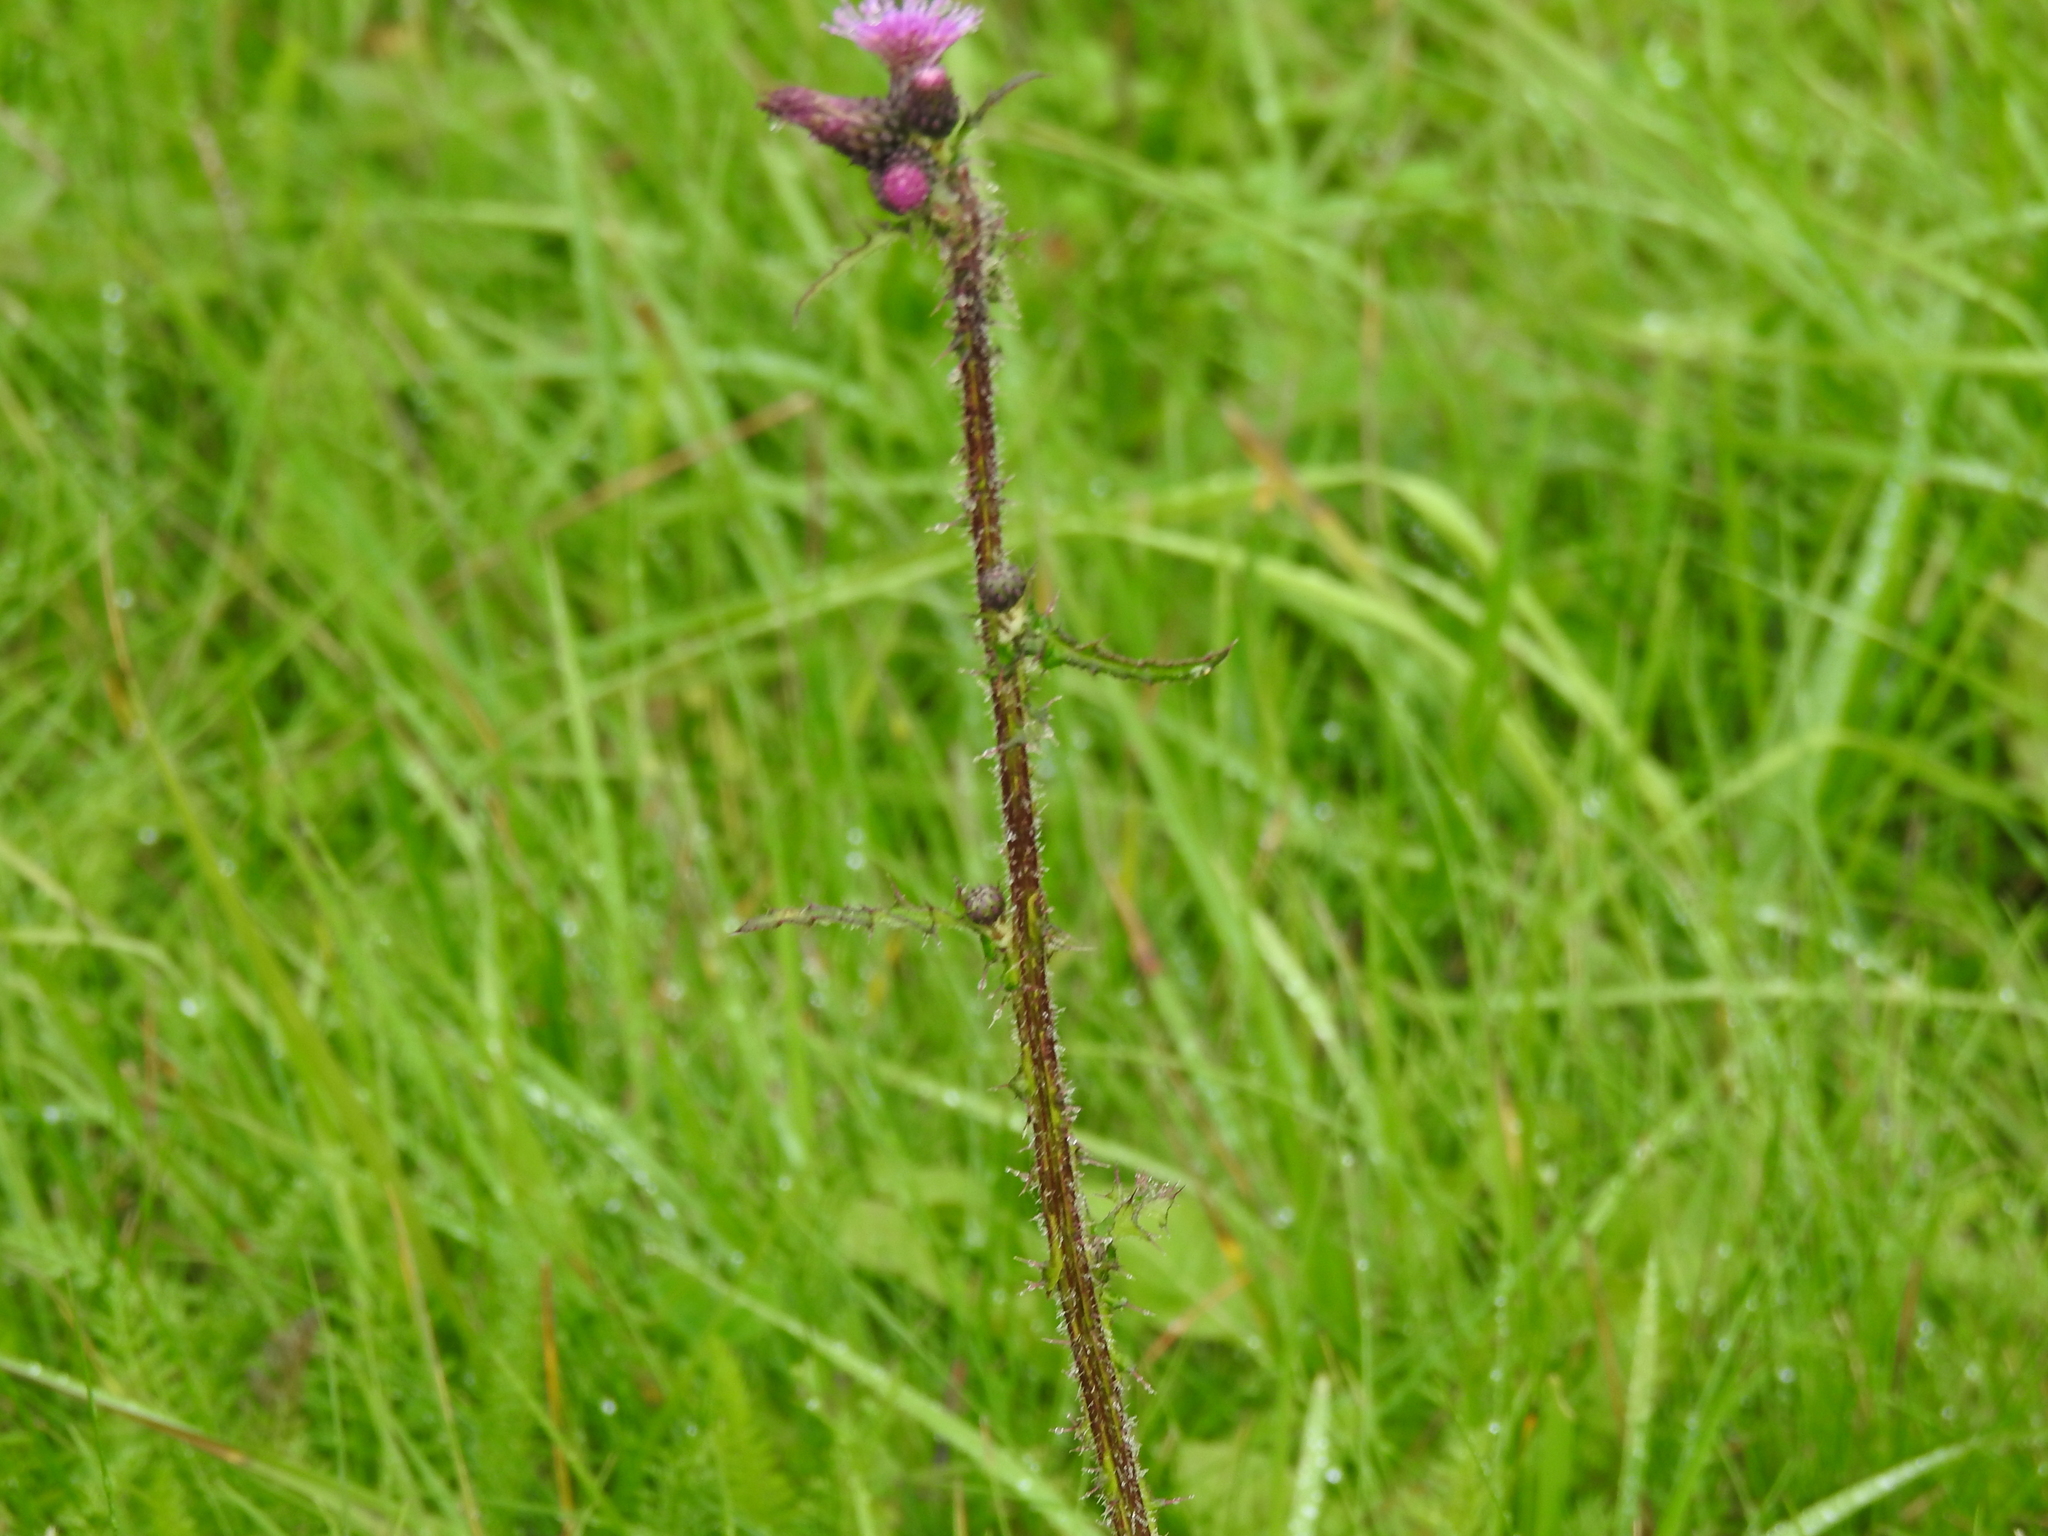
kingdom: Plantae
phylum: Tracheophyta
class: Magnoliopsida
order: Asterales
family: Asteraceae
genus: Cirsium
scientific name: Cirsium palustre
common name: Marsh thistle
